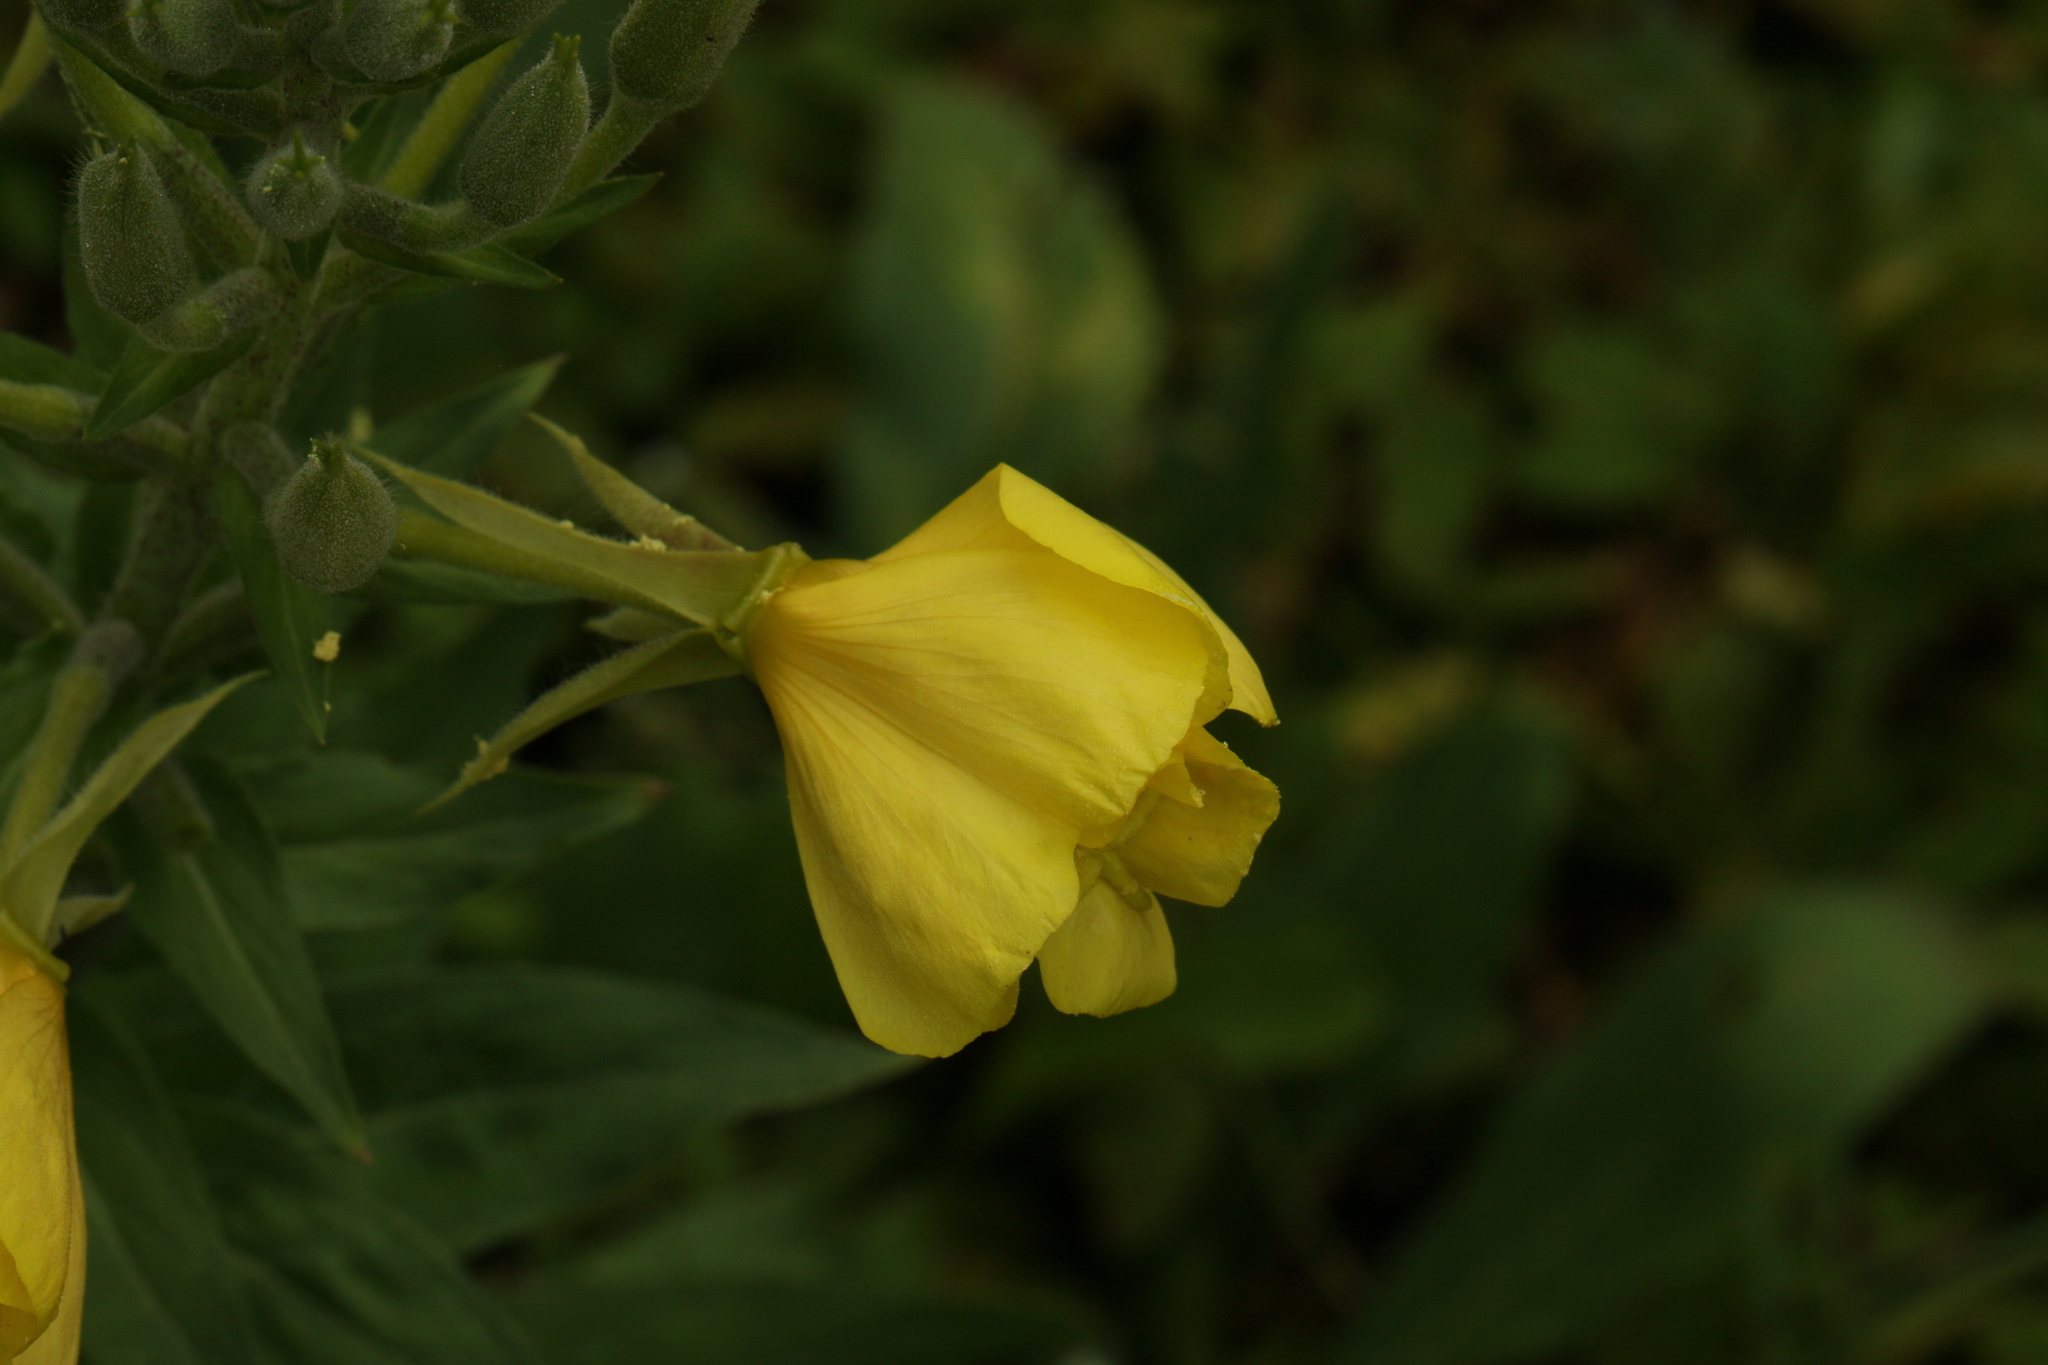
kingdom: Plantae
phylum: Tracheophyta
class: Magnoliopsida
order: Myrtales
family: Onagraceae
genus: Oenothera
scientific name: Oenothera biennis
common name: Common evening-primrose
